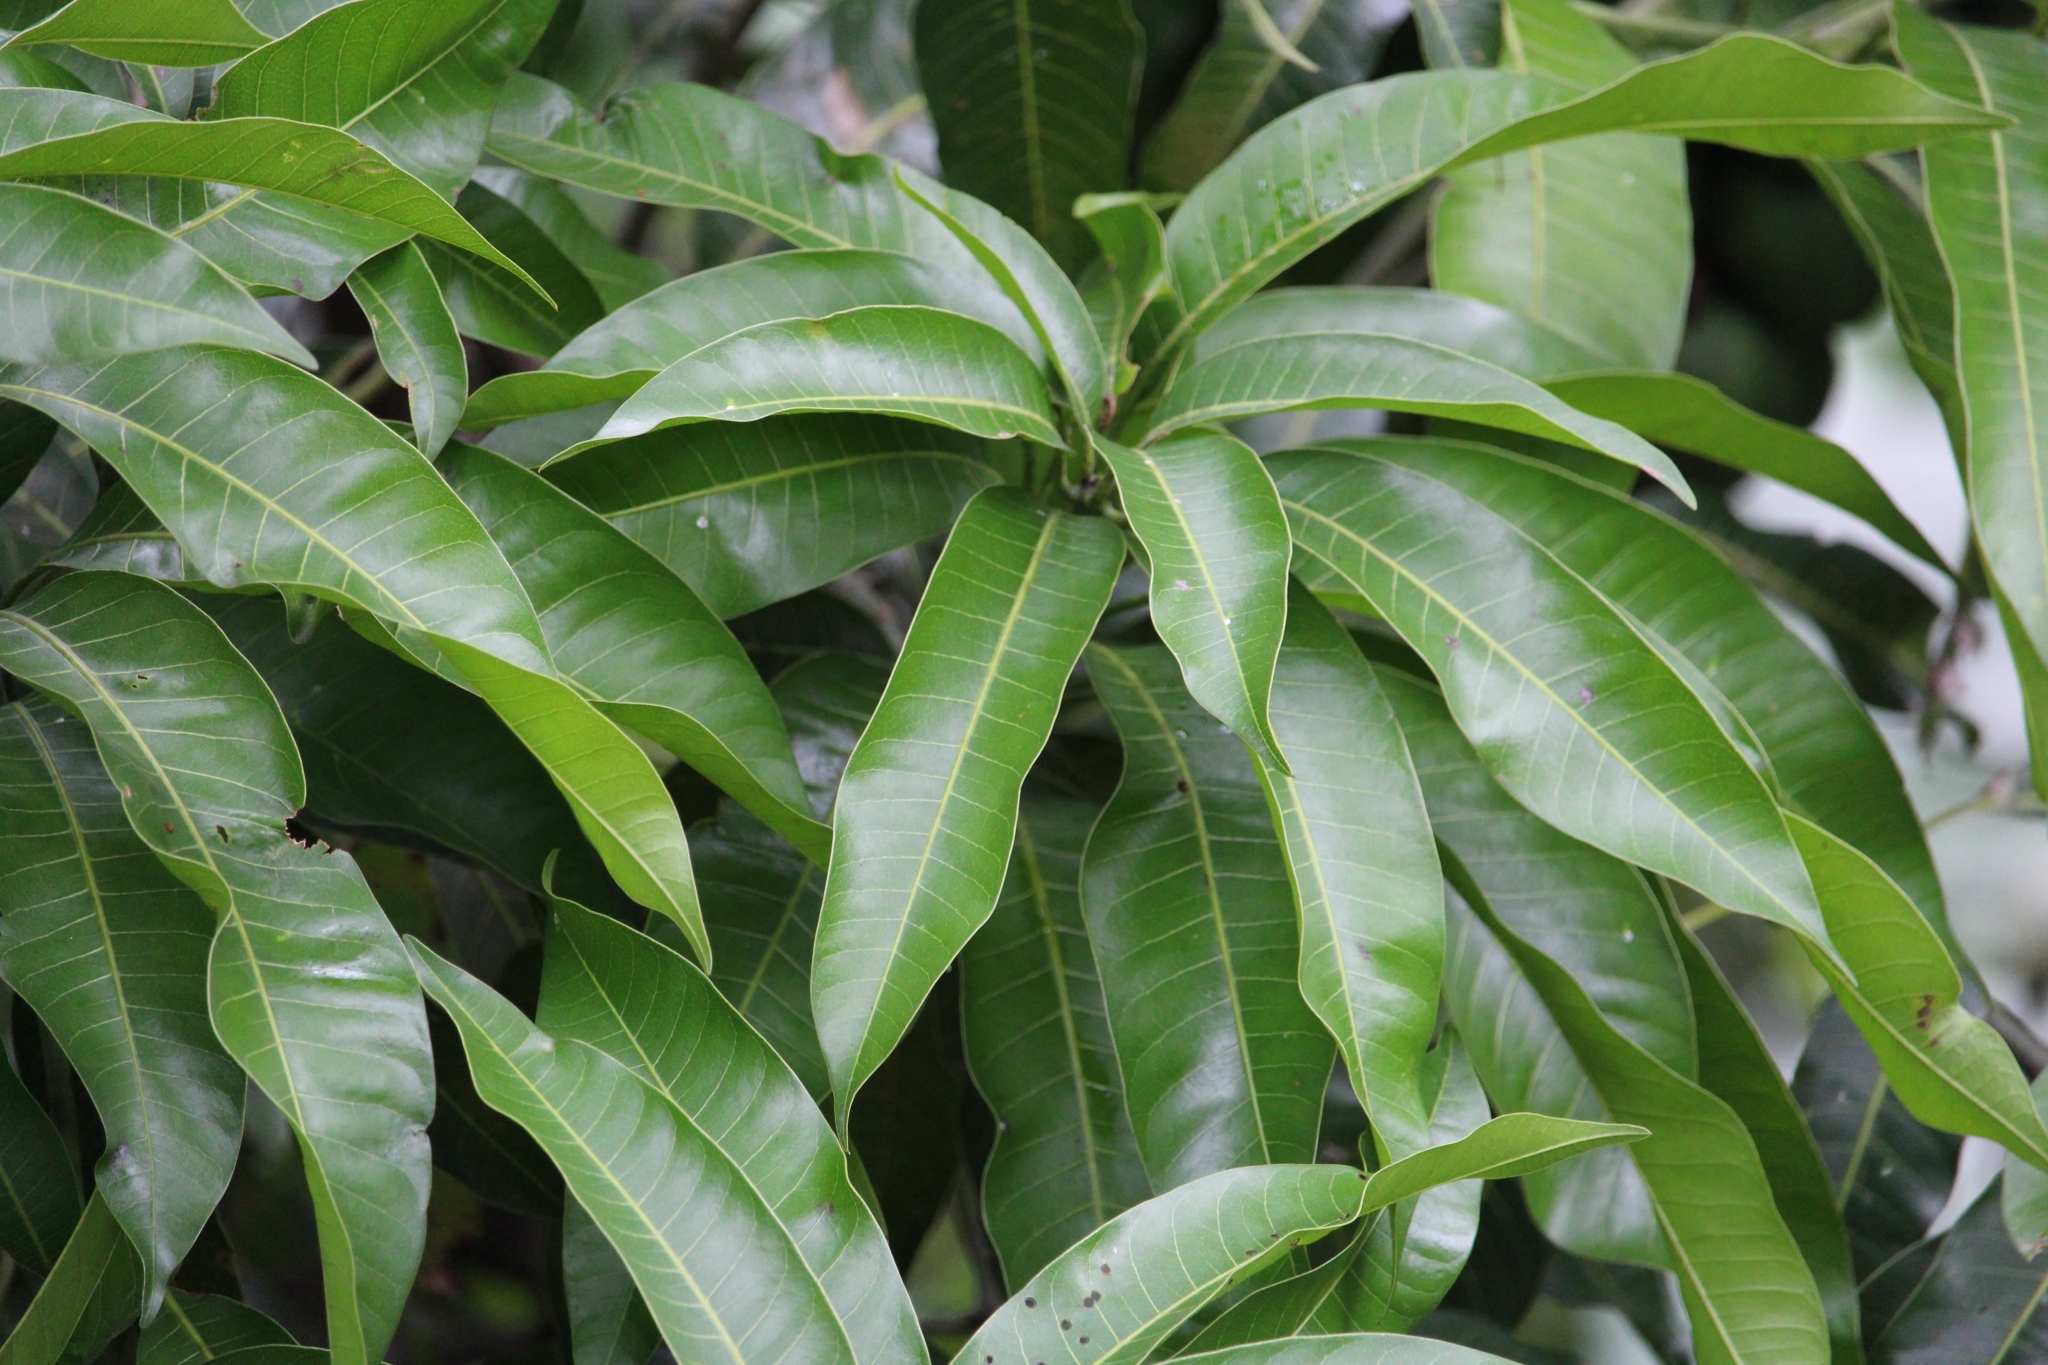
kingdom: Plantae
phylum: Tracheophyta
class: Magnoliopsida
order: Sapindales
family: Anacardiaceae
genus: Mangifera
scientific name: Mangifera indica
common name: Mango
